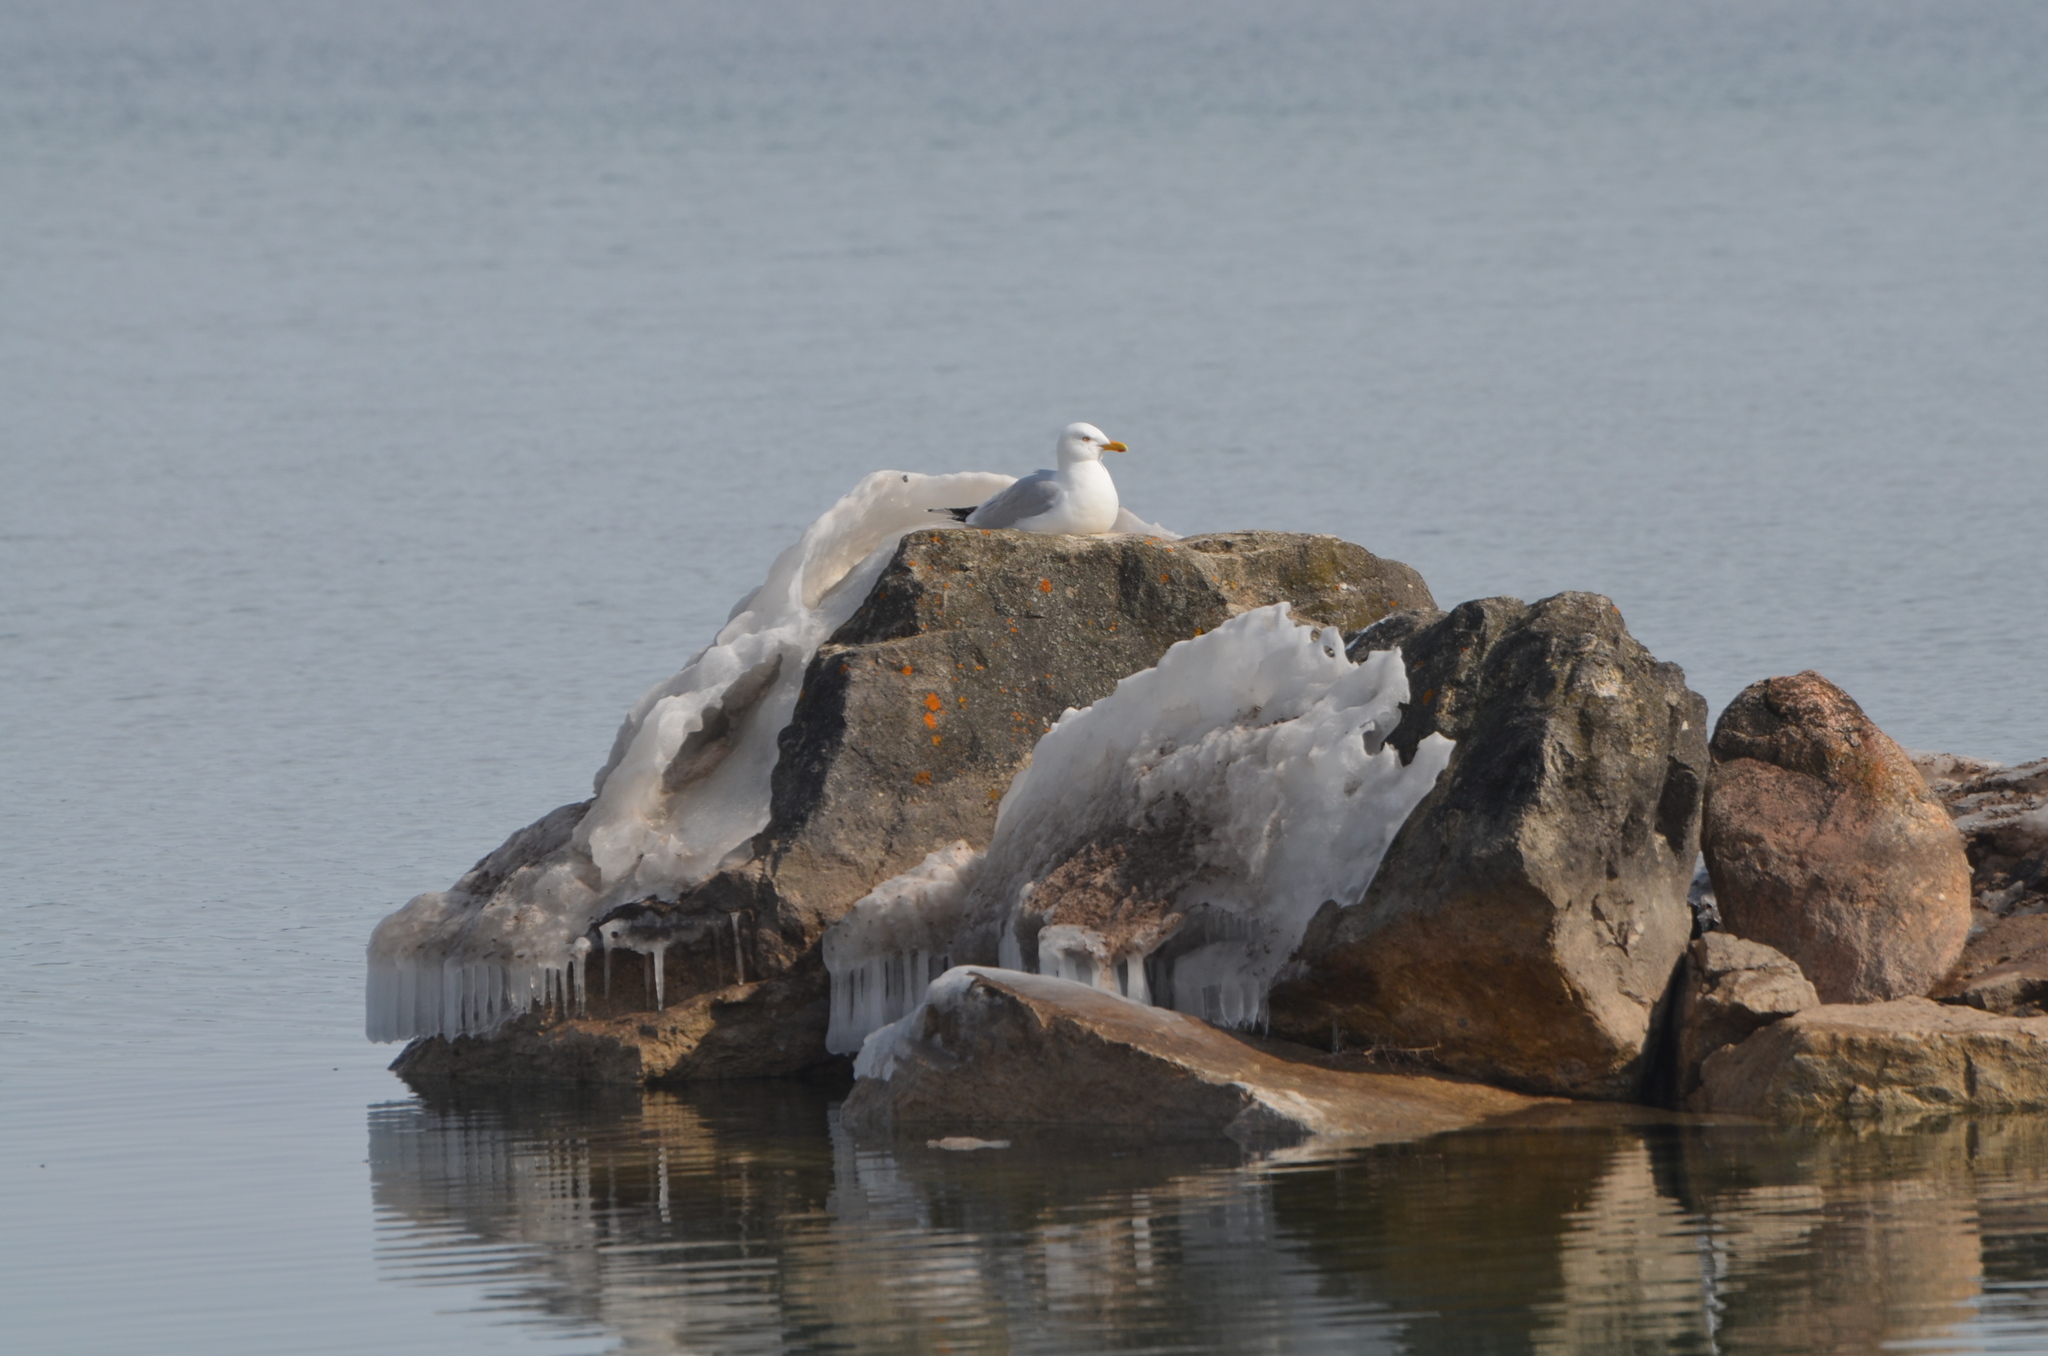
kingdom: Animalia
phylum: Chordata
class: Aves
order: Charadriiformes
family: Laridae
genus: Larus
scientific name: Larus argentatus
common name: Herring gull
